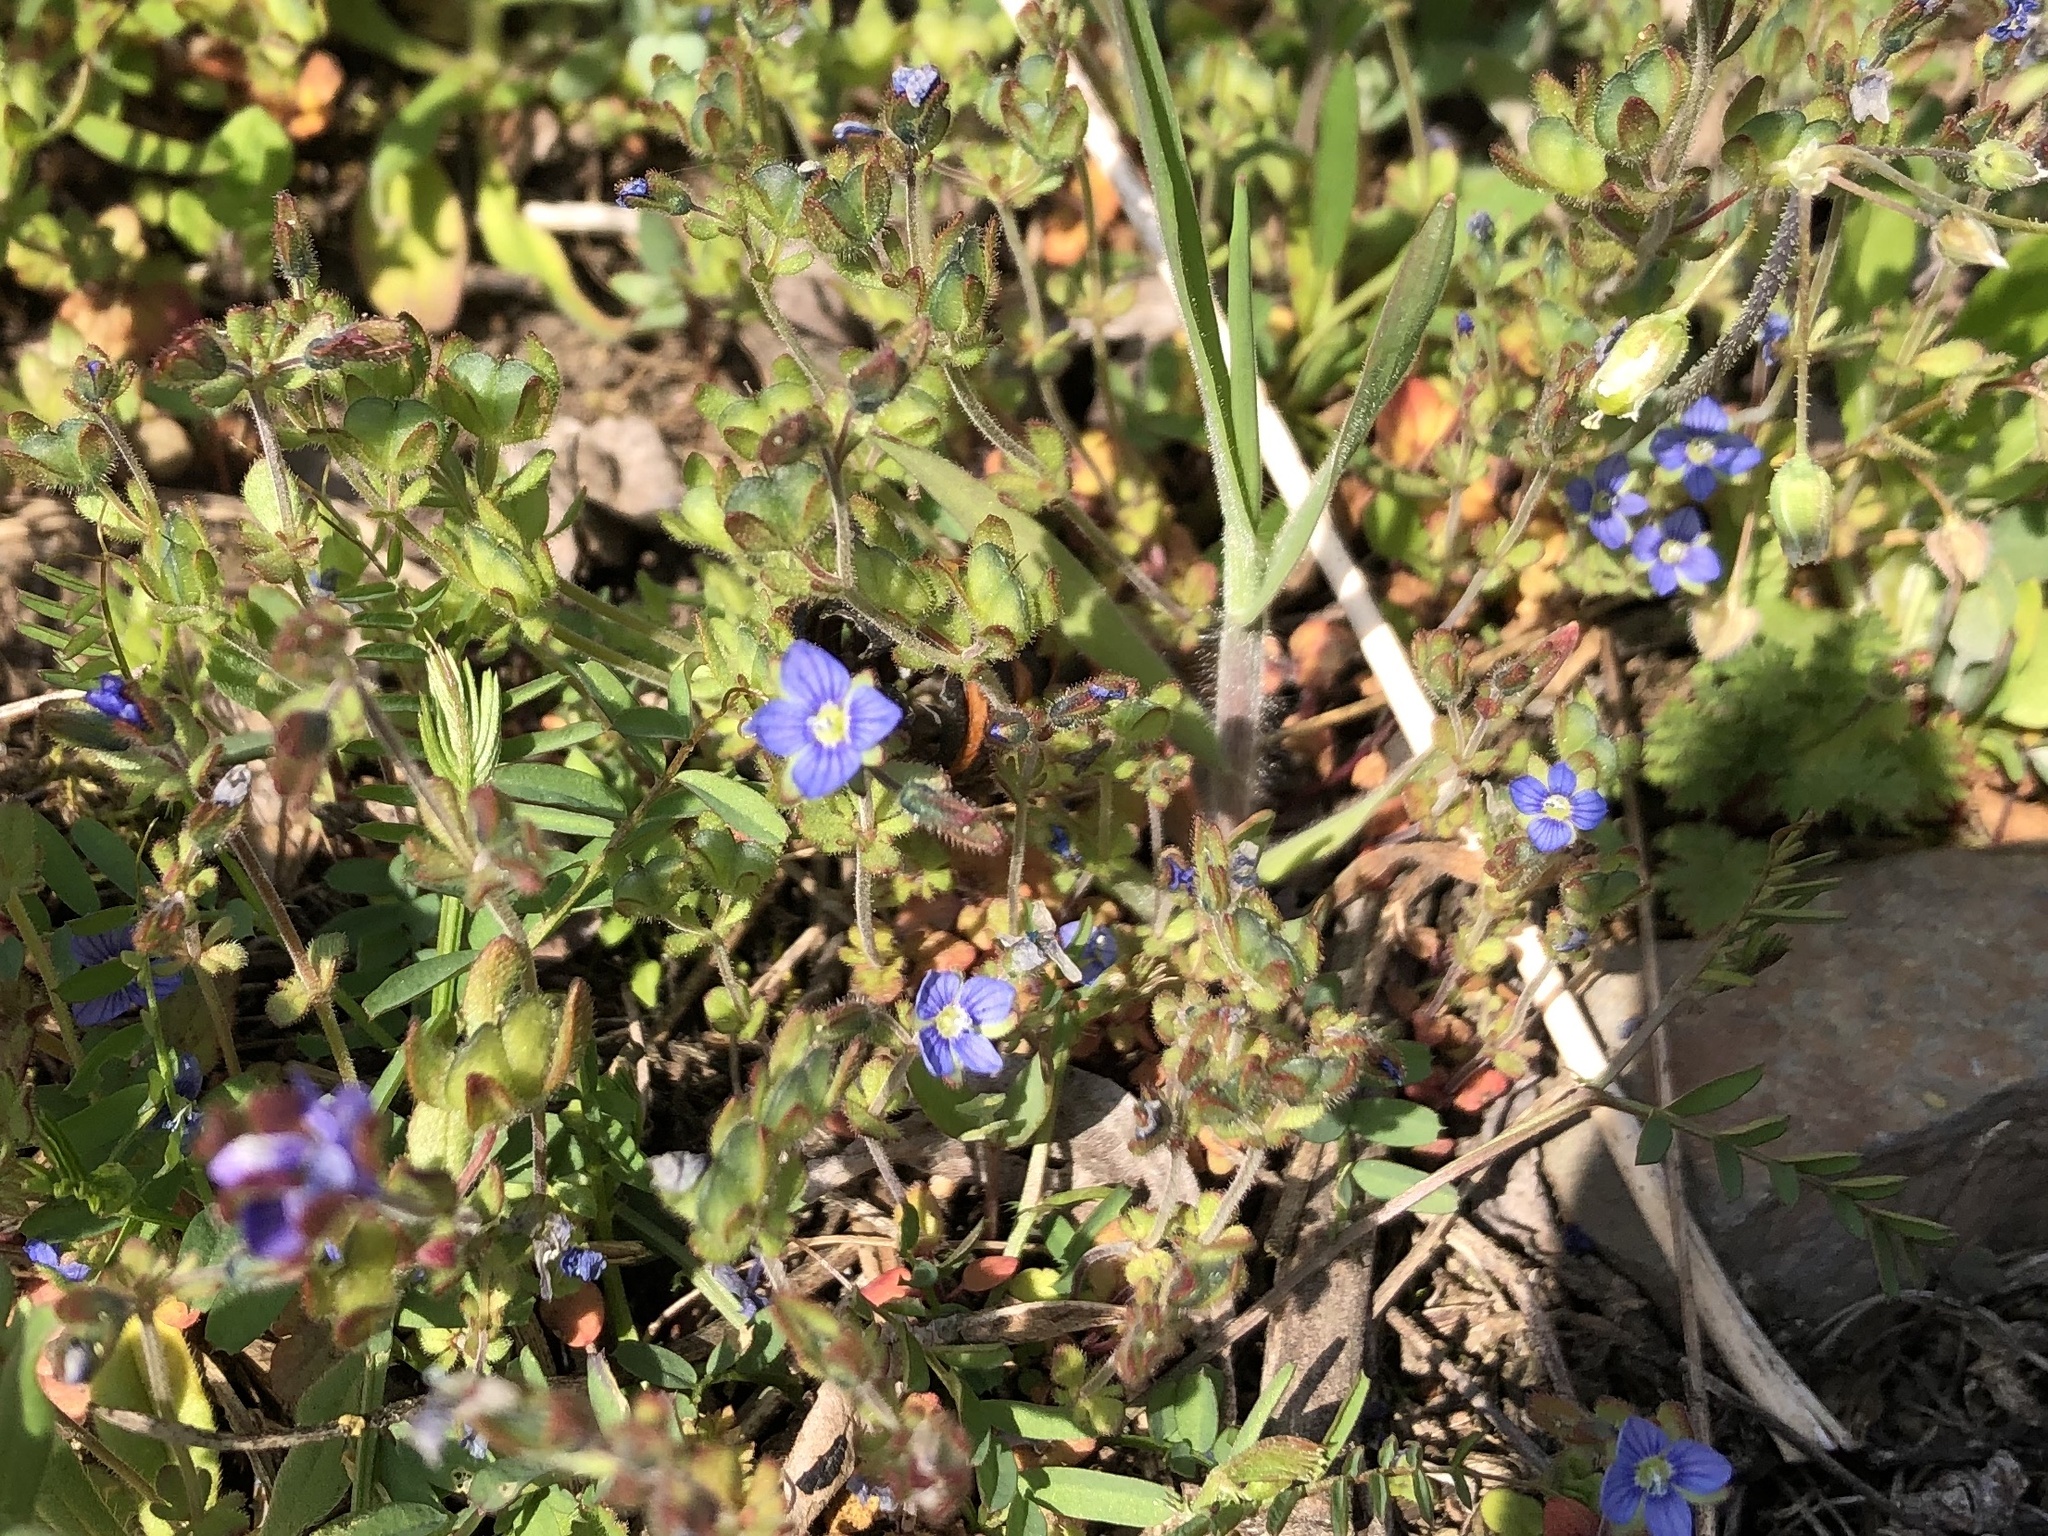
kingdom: Plantae
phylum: Tracheophyta
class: Magnoliopsida
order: Lamiales
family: Plantaginaceae
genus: Veronica
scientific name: Veronica triphyllos
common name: Fingered speedwell
